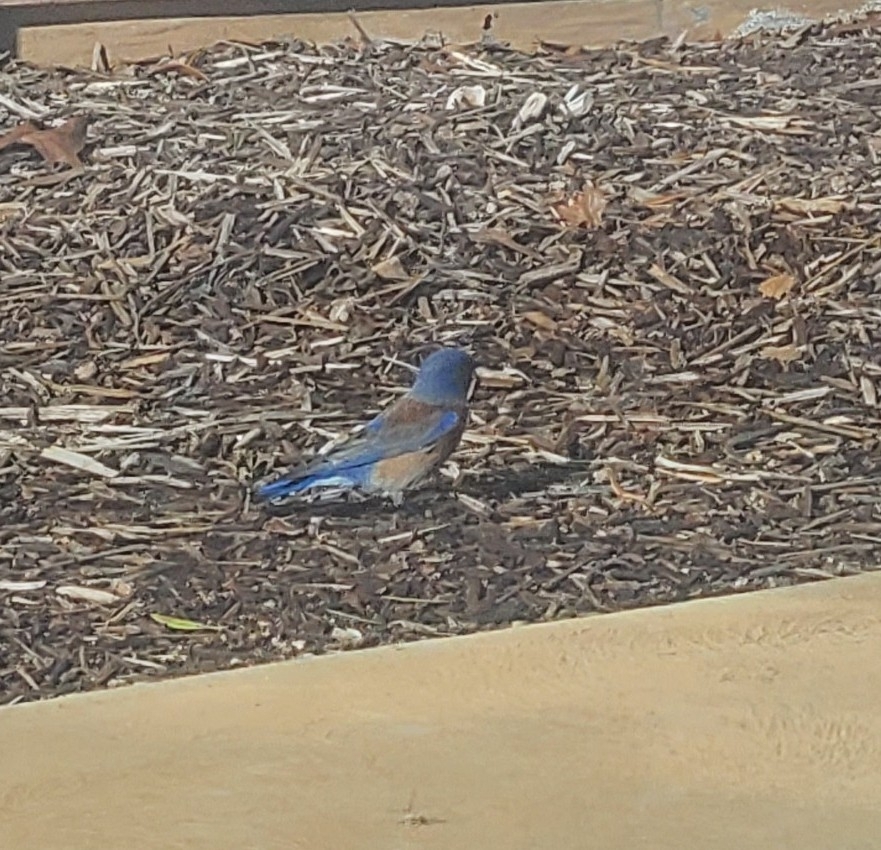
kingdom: Animalia
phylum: Chordata
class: Aves
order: Passeriformes
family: Turdidae
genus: Sialia
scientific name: Sialia mexicana
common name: Western bluebird
